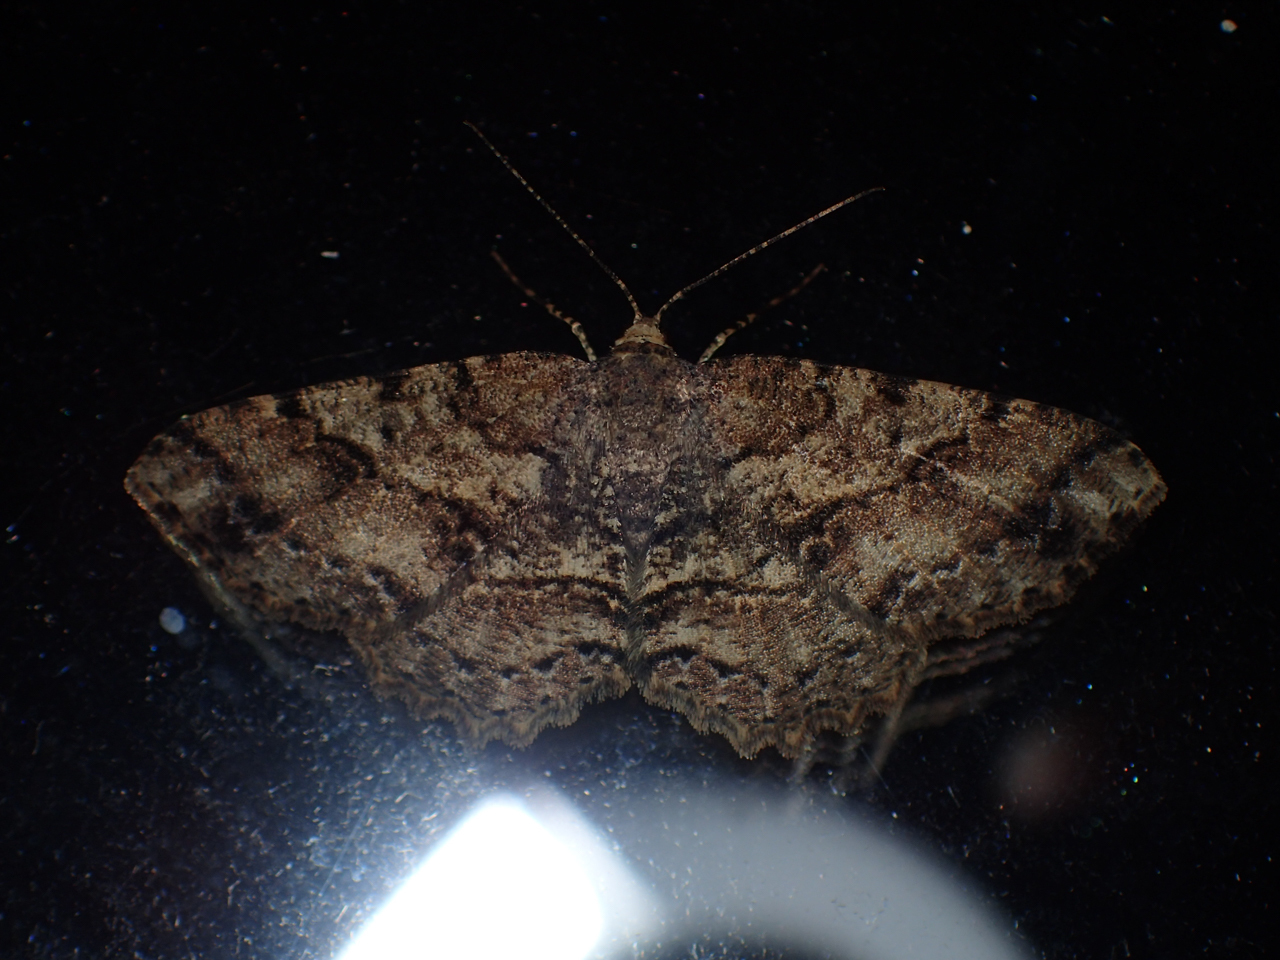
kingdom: Animalia
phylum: Arthropoda
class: Insecta
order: Lepidoptera
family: Geometridae
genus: Melanolophia
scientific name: Melanolophia signataria
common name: Signate melanolophia
